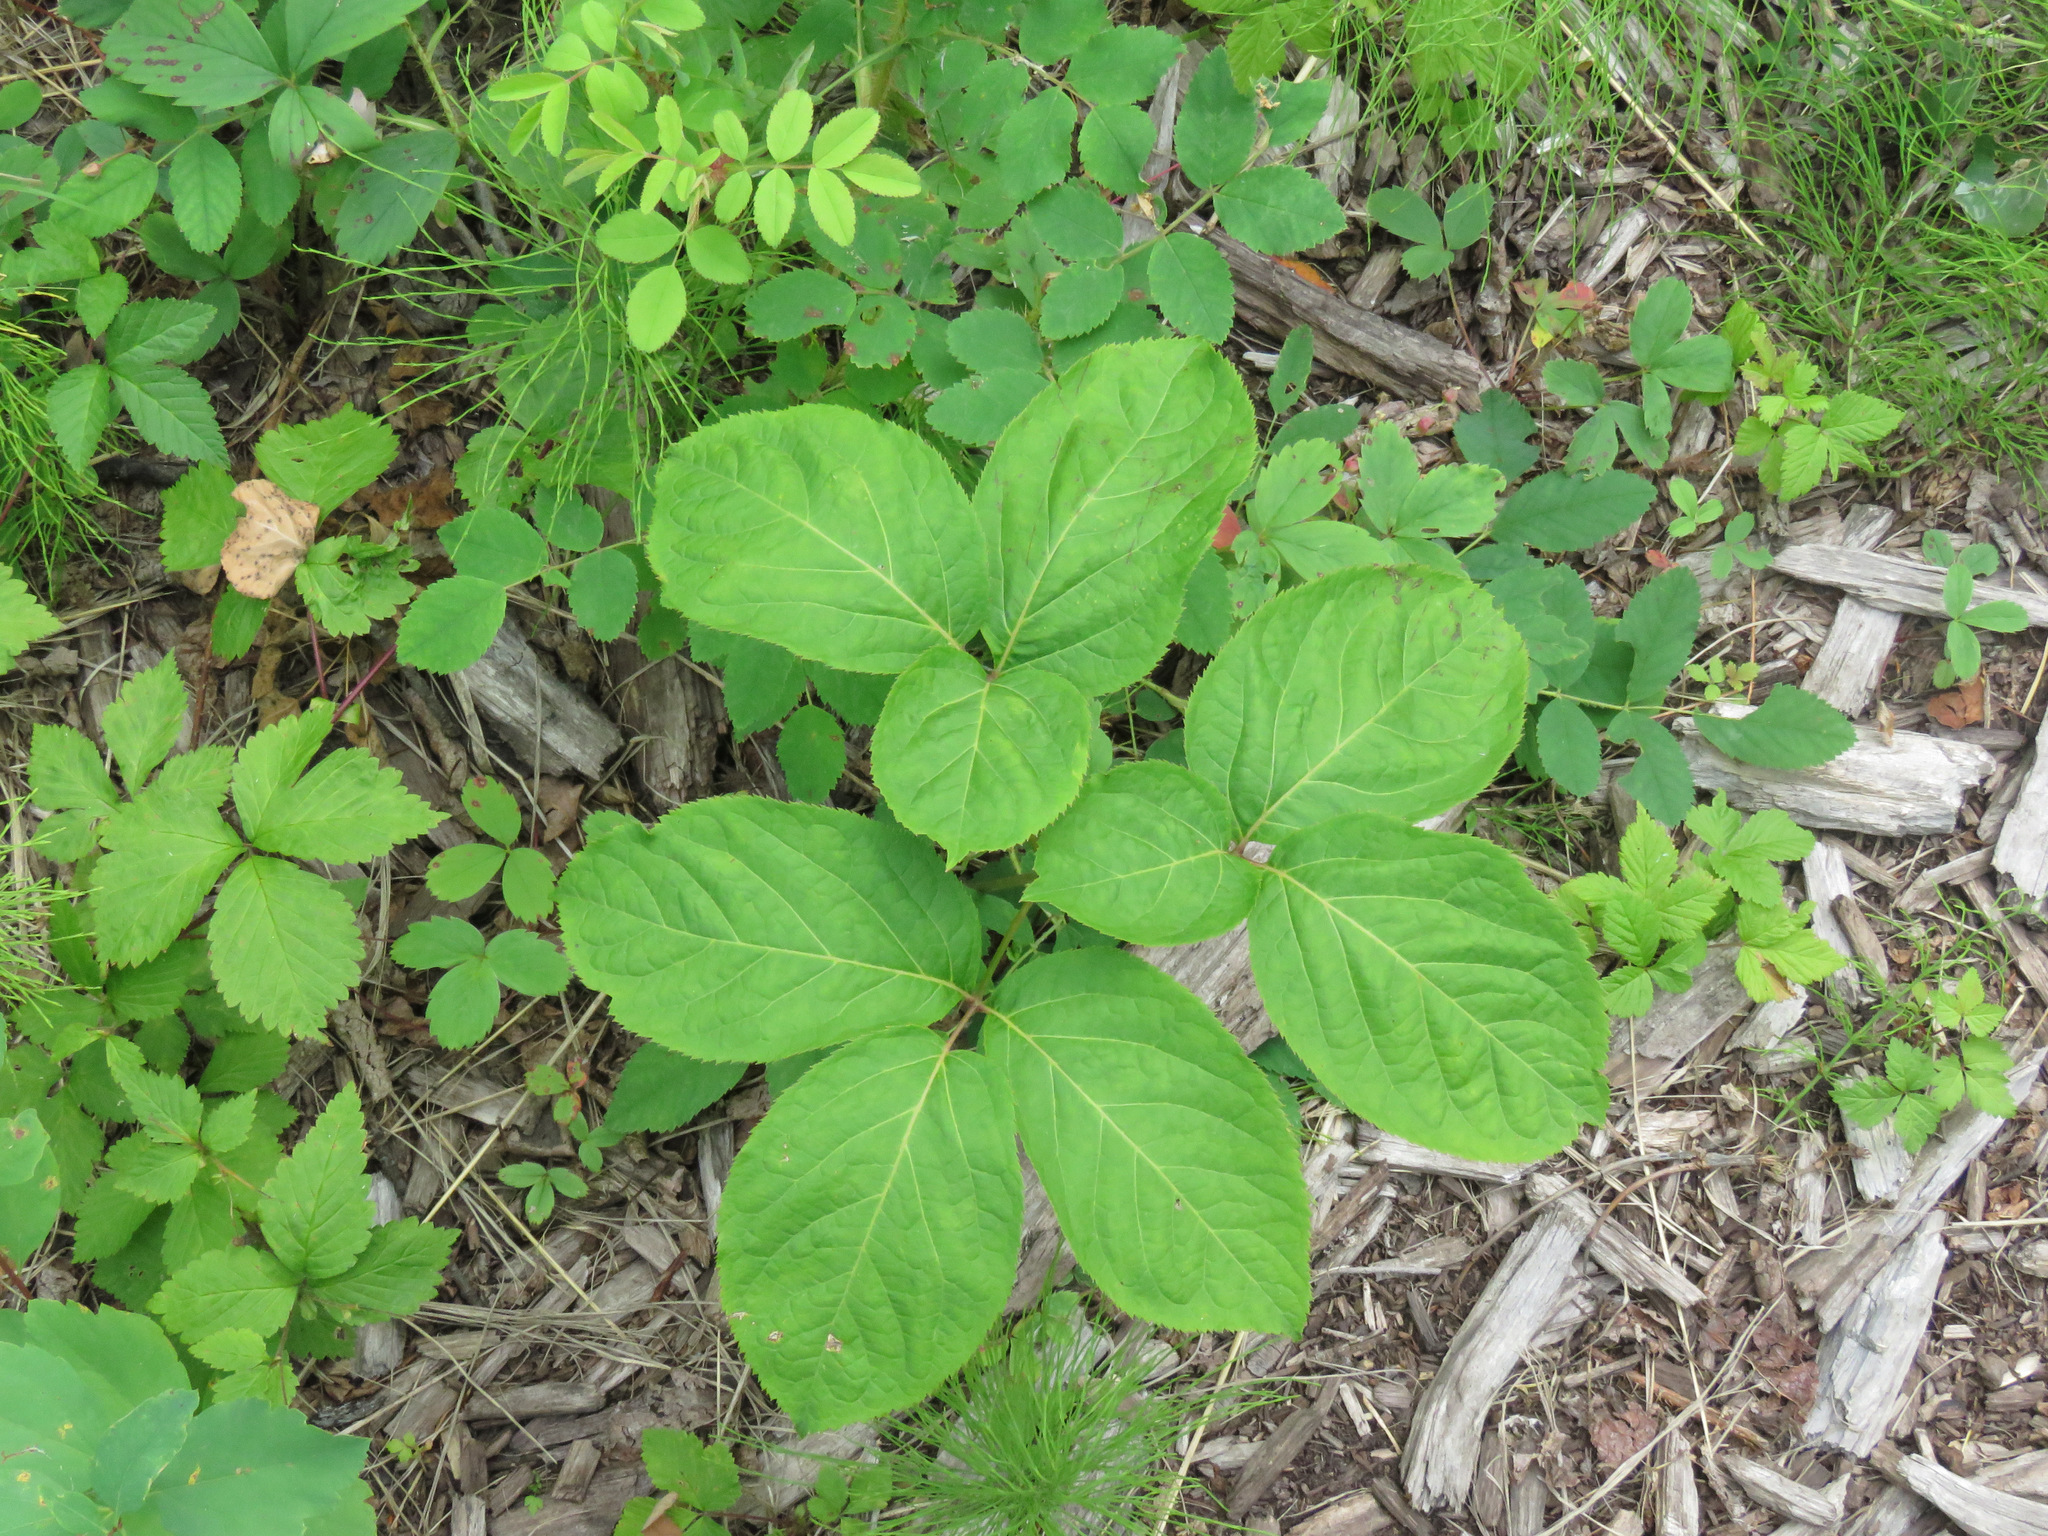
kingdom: Plantae
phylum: Tracheophyta
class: Magnoliopsida
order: Apiales
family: Araliaceae
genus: Aralia
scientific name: Aralia nudicaulis
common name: Wild sarsaparilla
